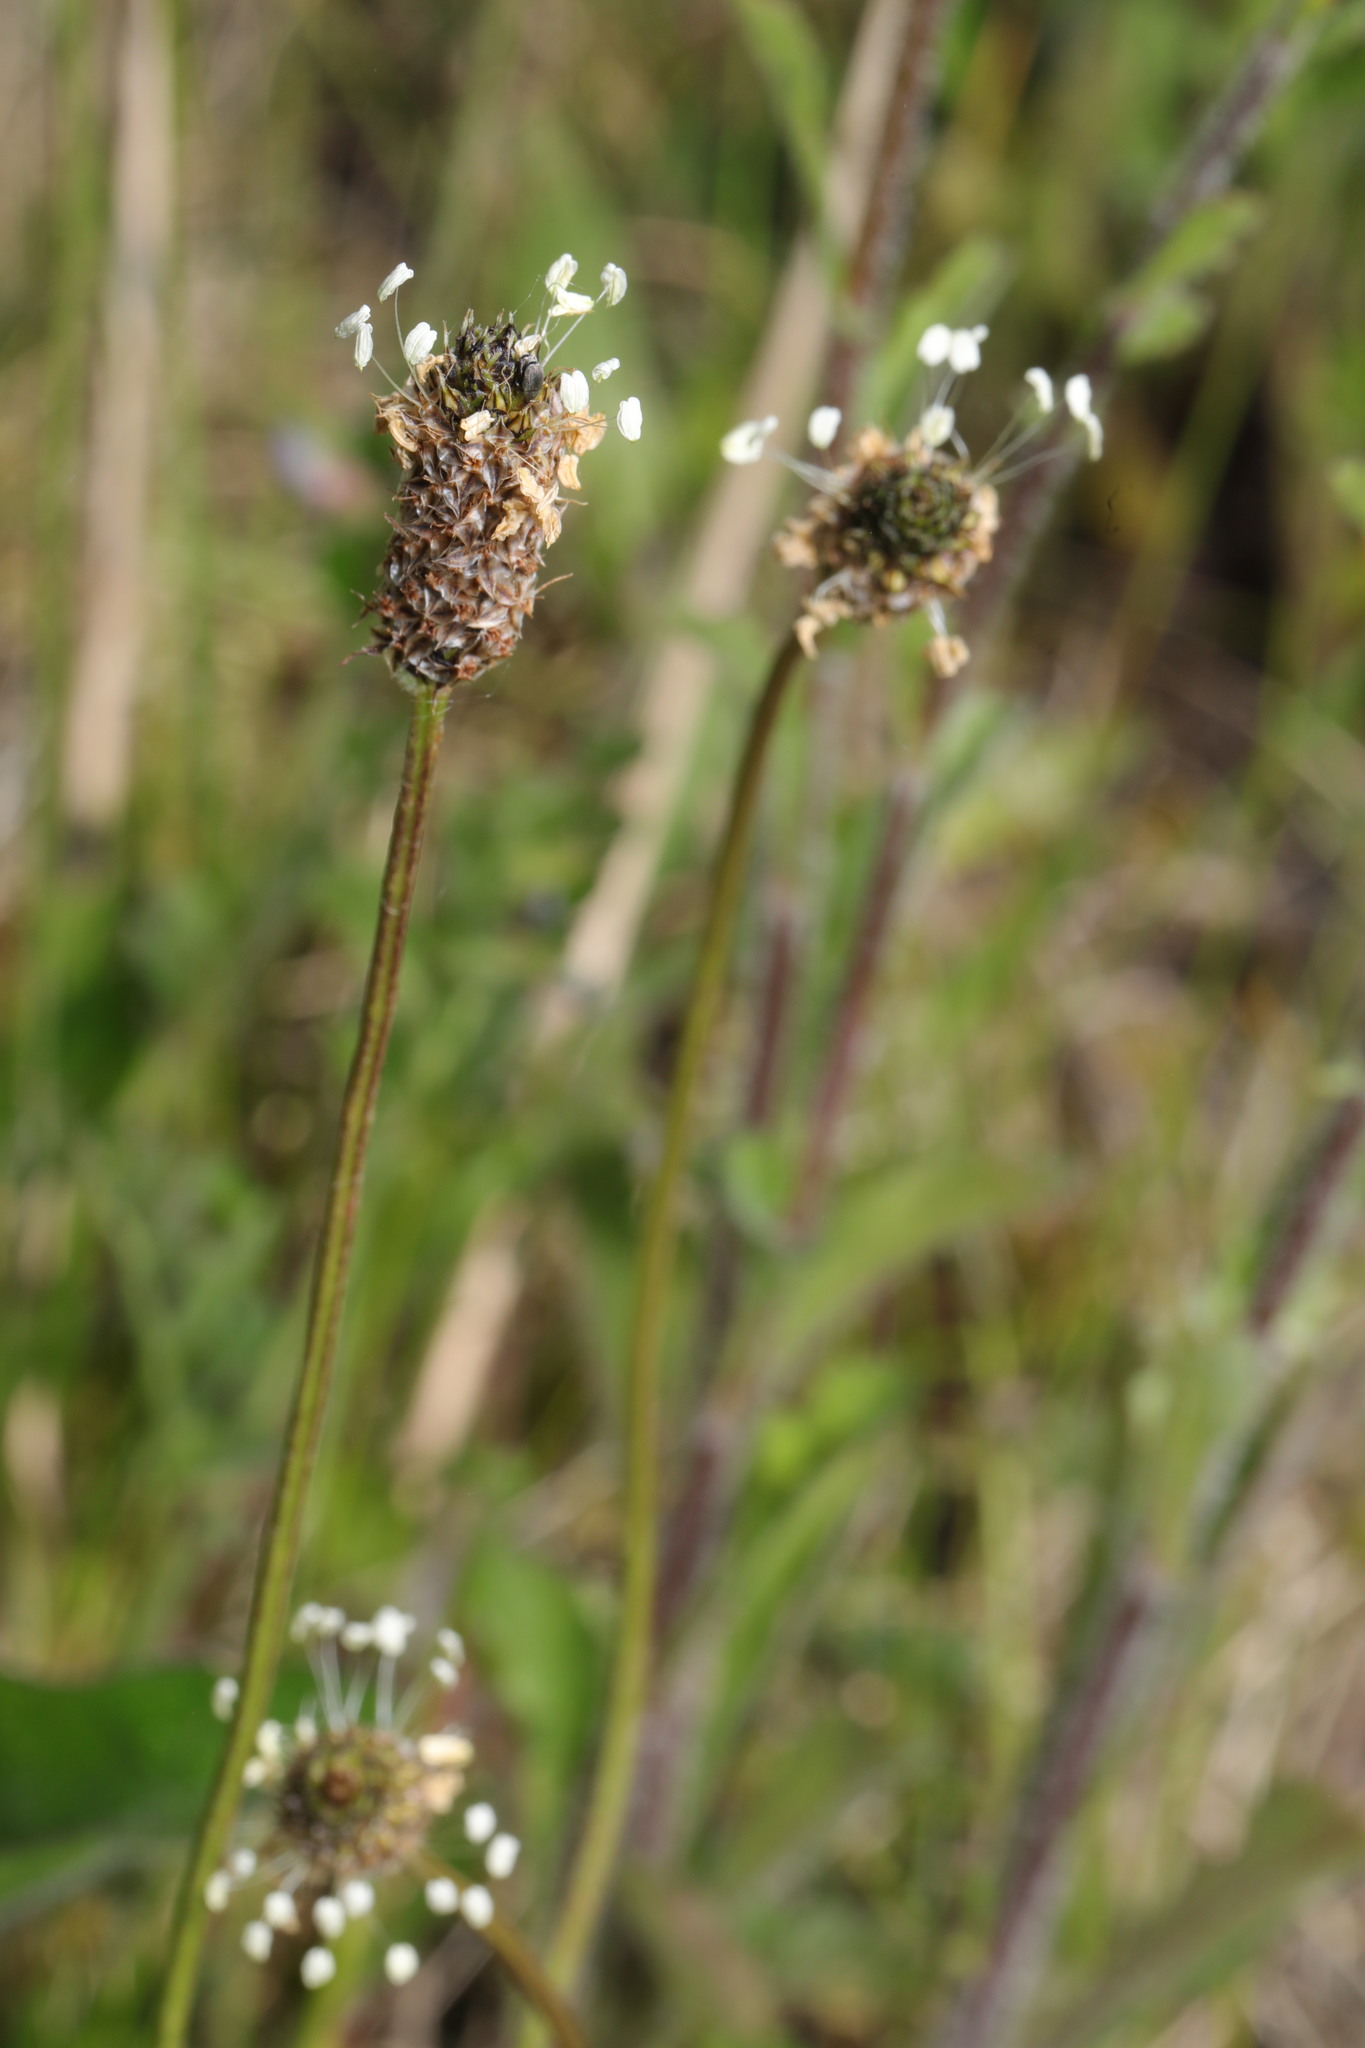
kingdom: Plantae
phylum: Tracheophyta
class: Magnoliopsida
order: Lamiales
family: Plantaginaceae
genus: Plantago
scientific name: Plantago lanceolata
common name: Ribwort plantain
